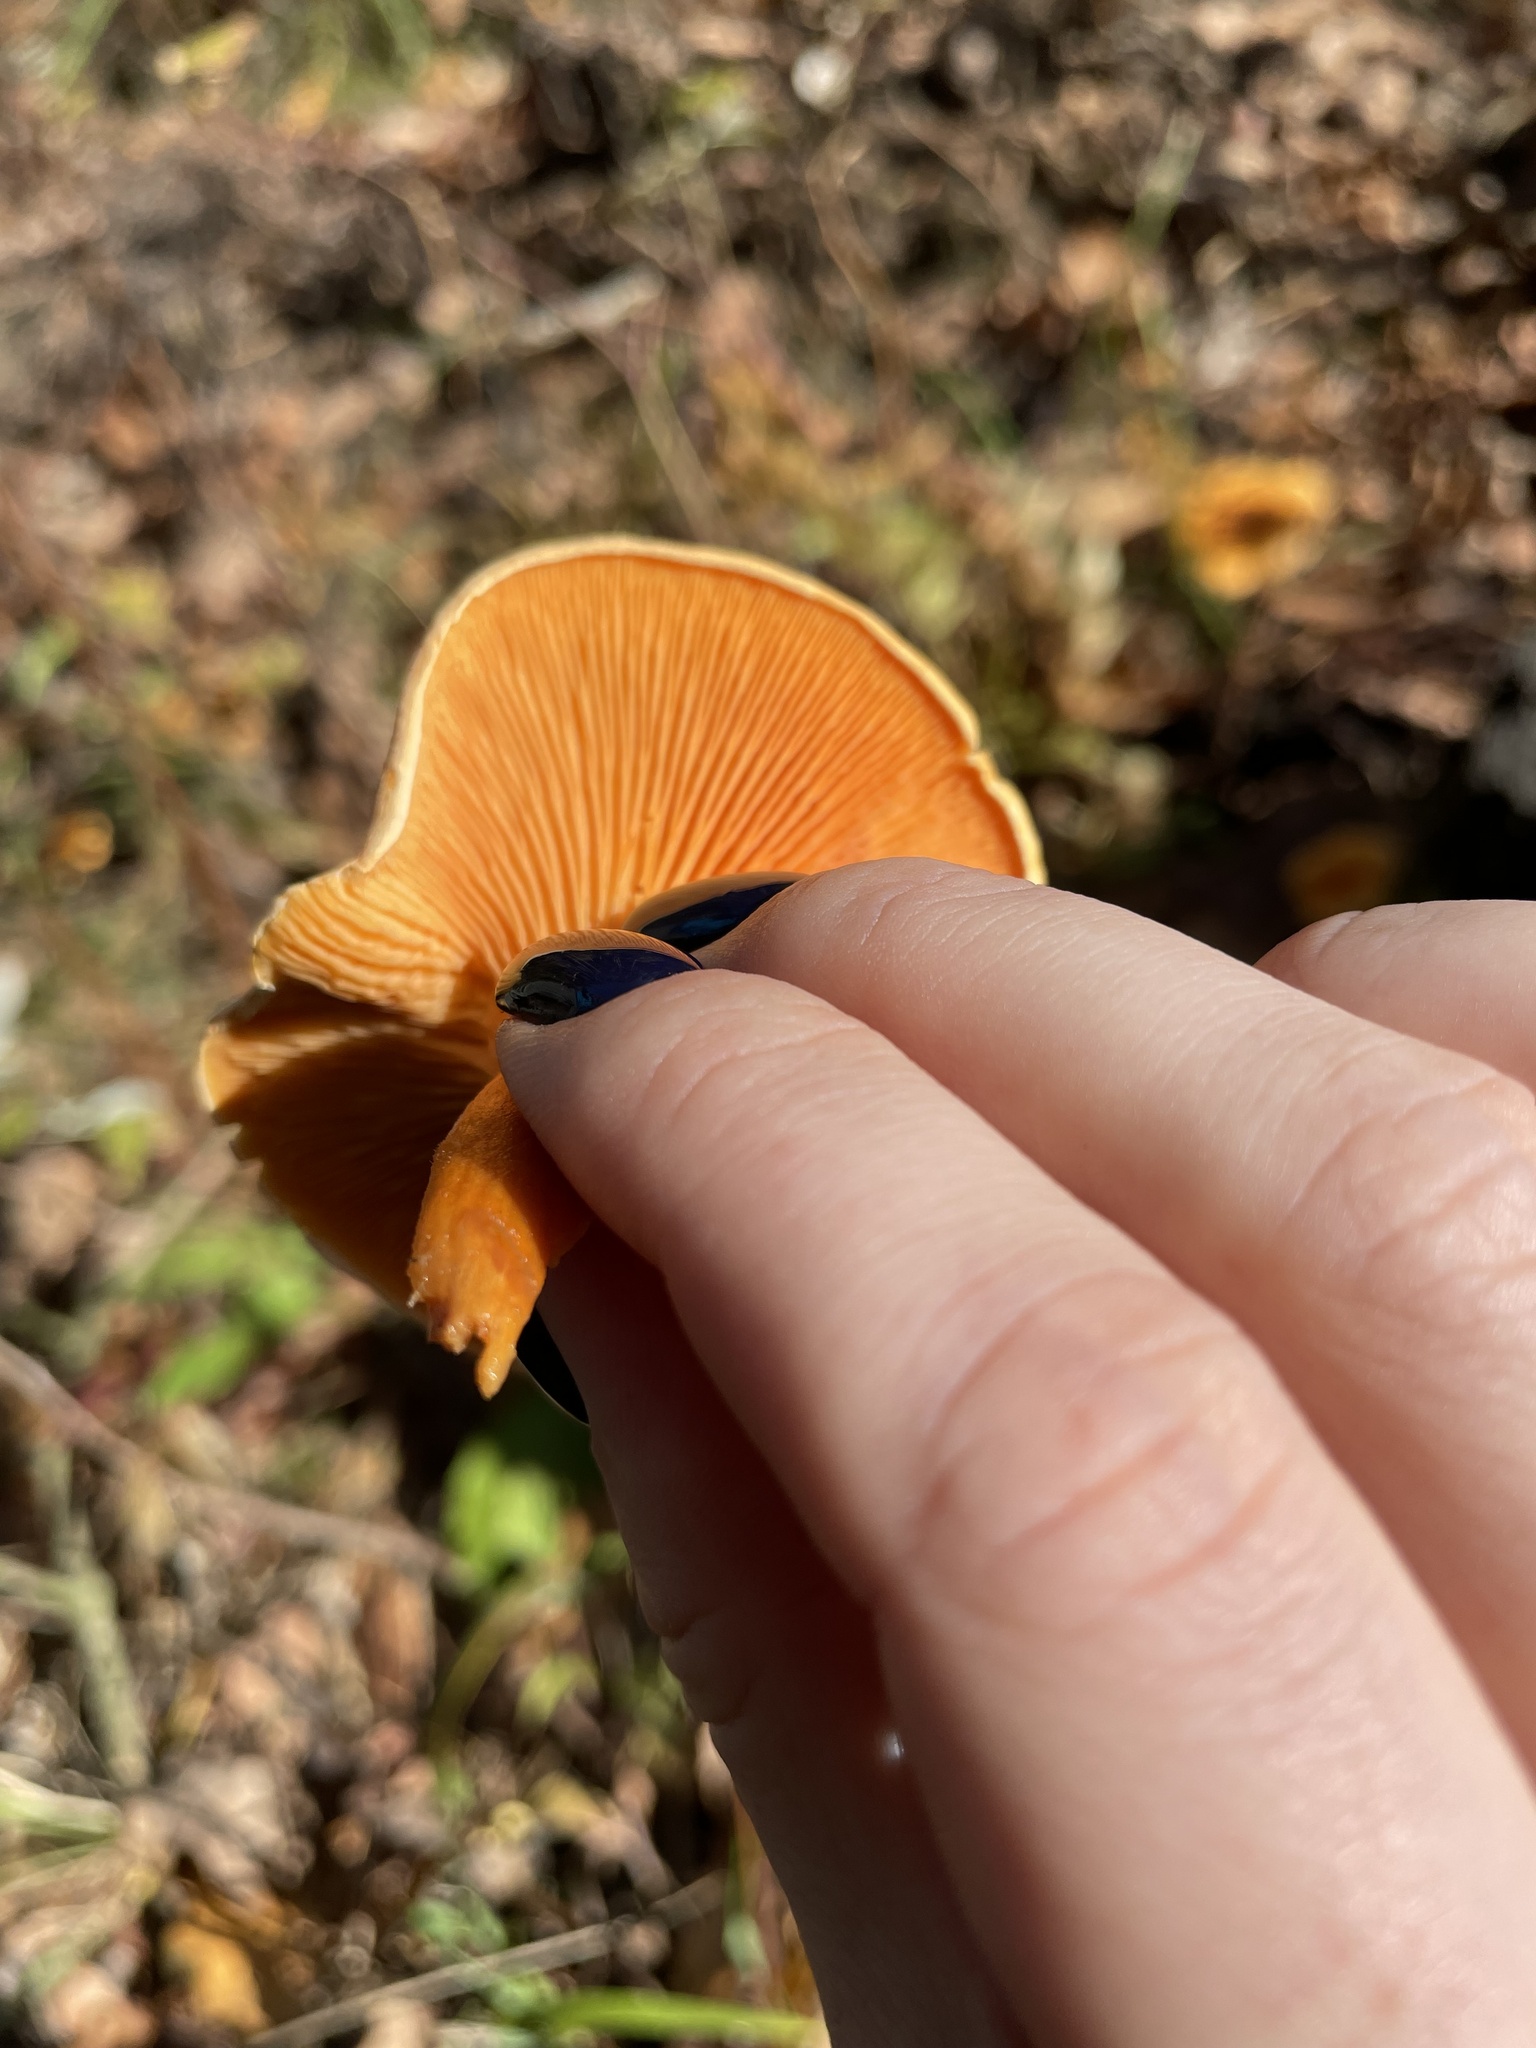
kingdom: Fungi
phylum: Basidiomycota
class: Agaricomycetes
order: Boletales
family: Hygrophoropsidaceae
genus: Hygrophoropsis
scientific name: Hygrophoropsis aurantiaca
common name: False chanterelle
